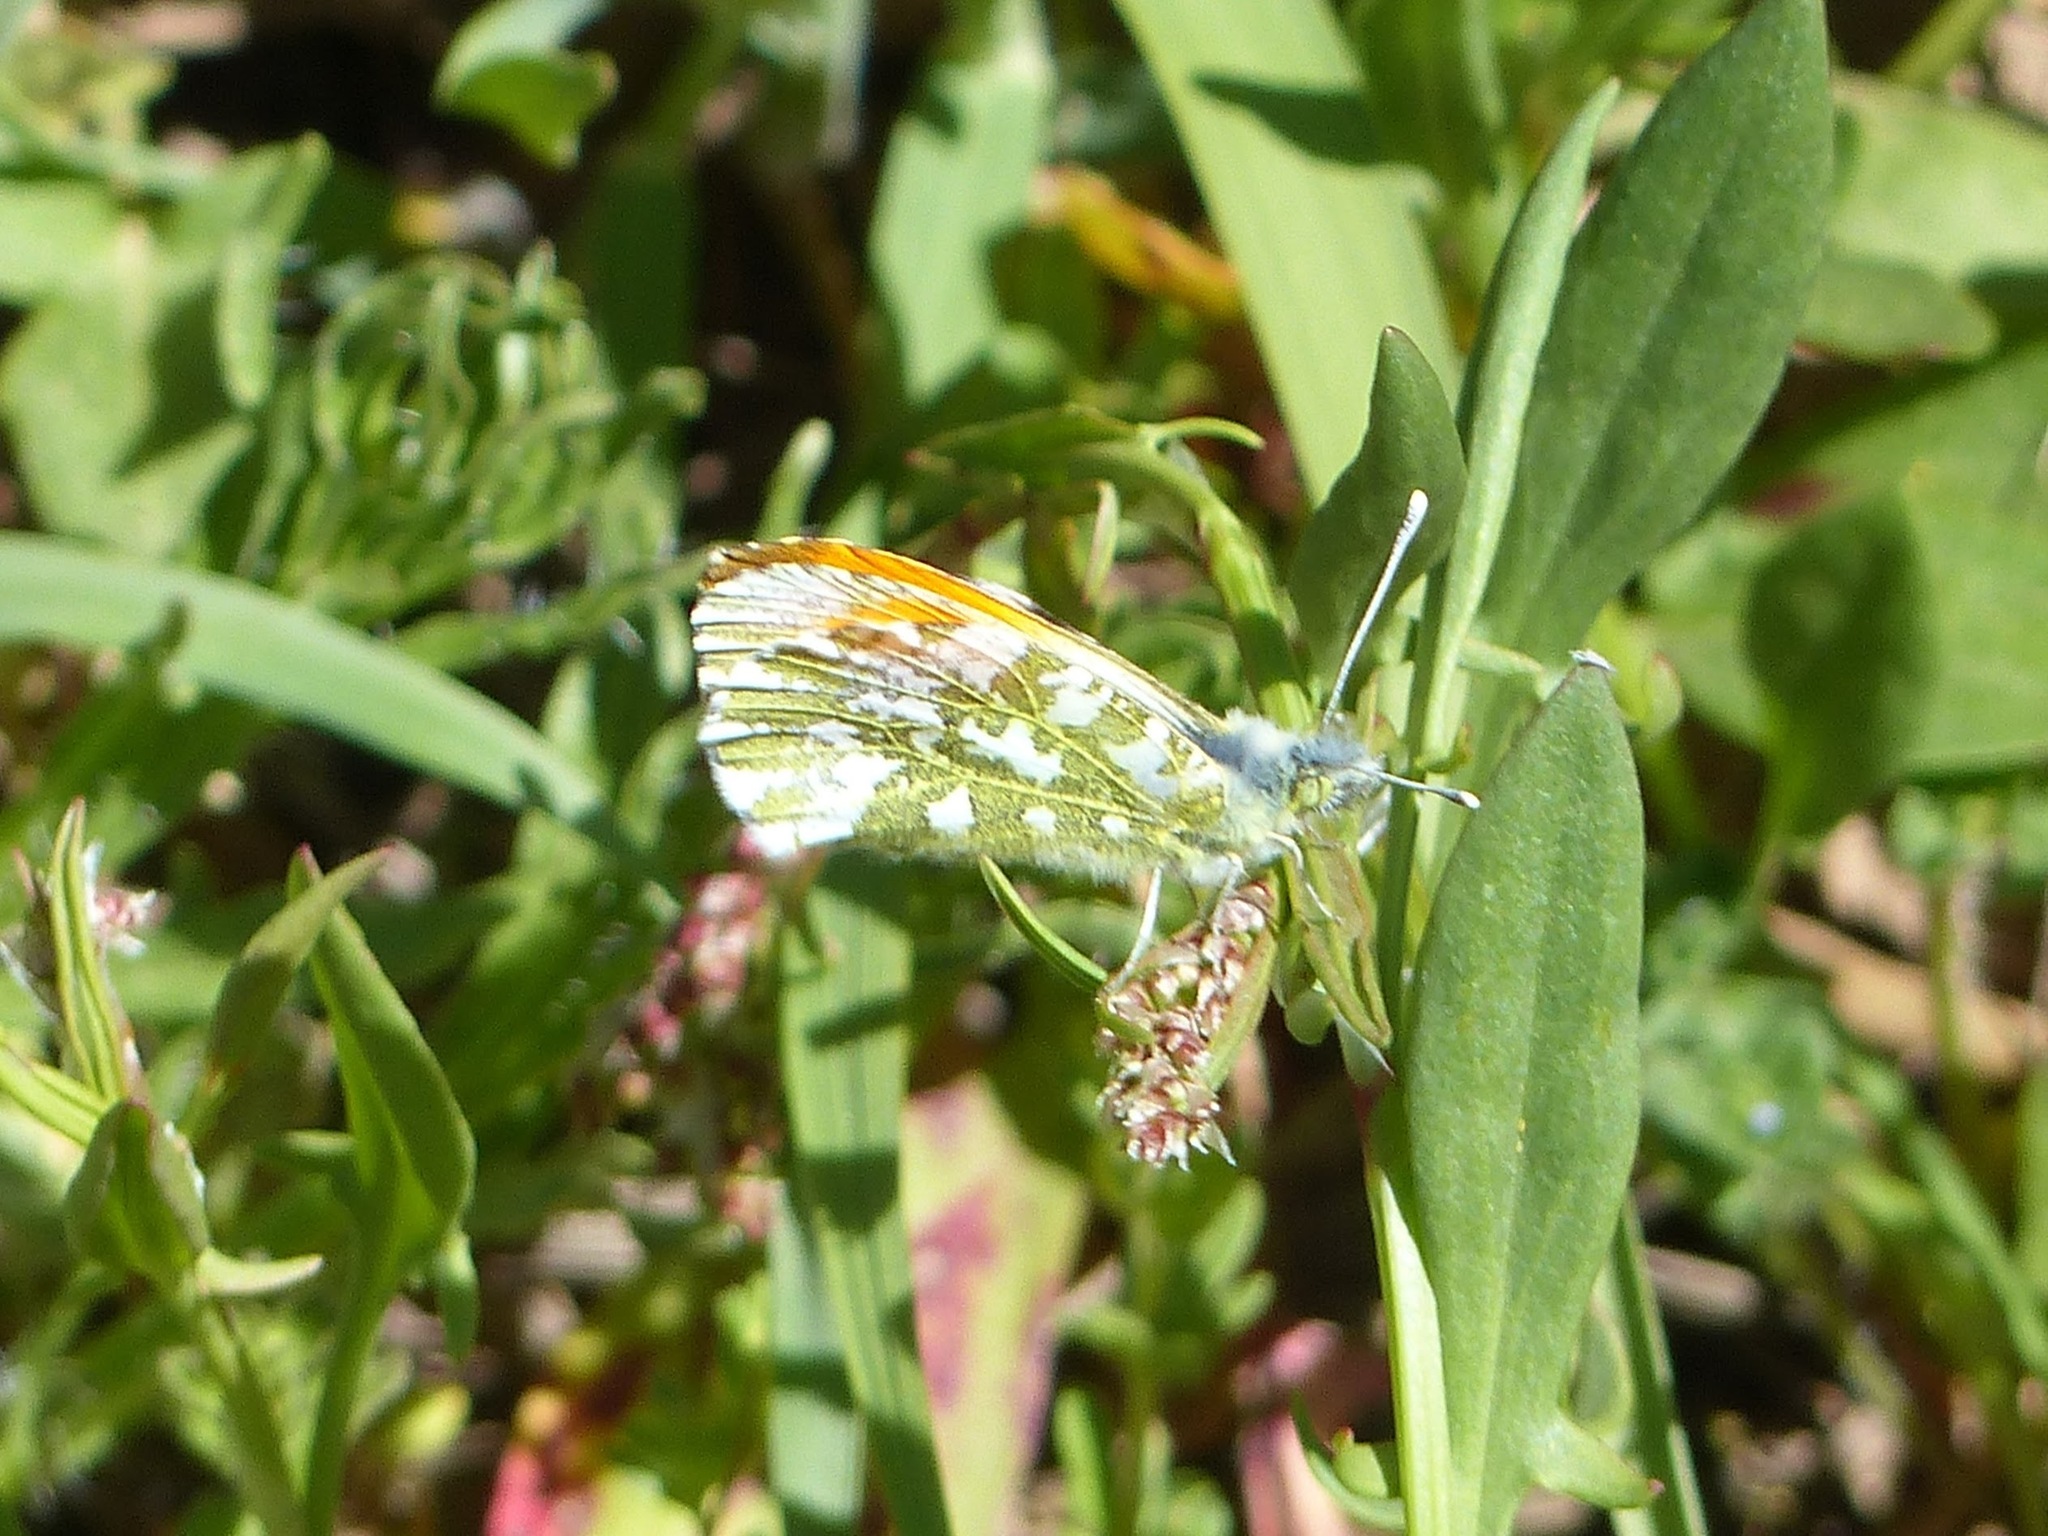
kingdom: Animalia
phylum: Arthropoda
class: Insecta
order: Lepidoptera
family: Pieridae
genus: Anthocharis
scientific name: Anthocharis cardamines
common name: Orange-tip
